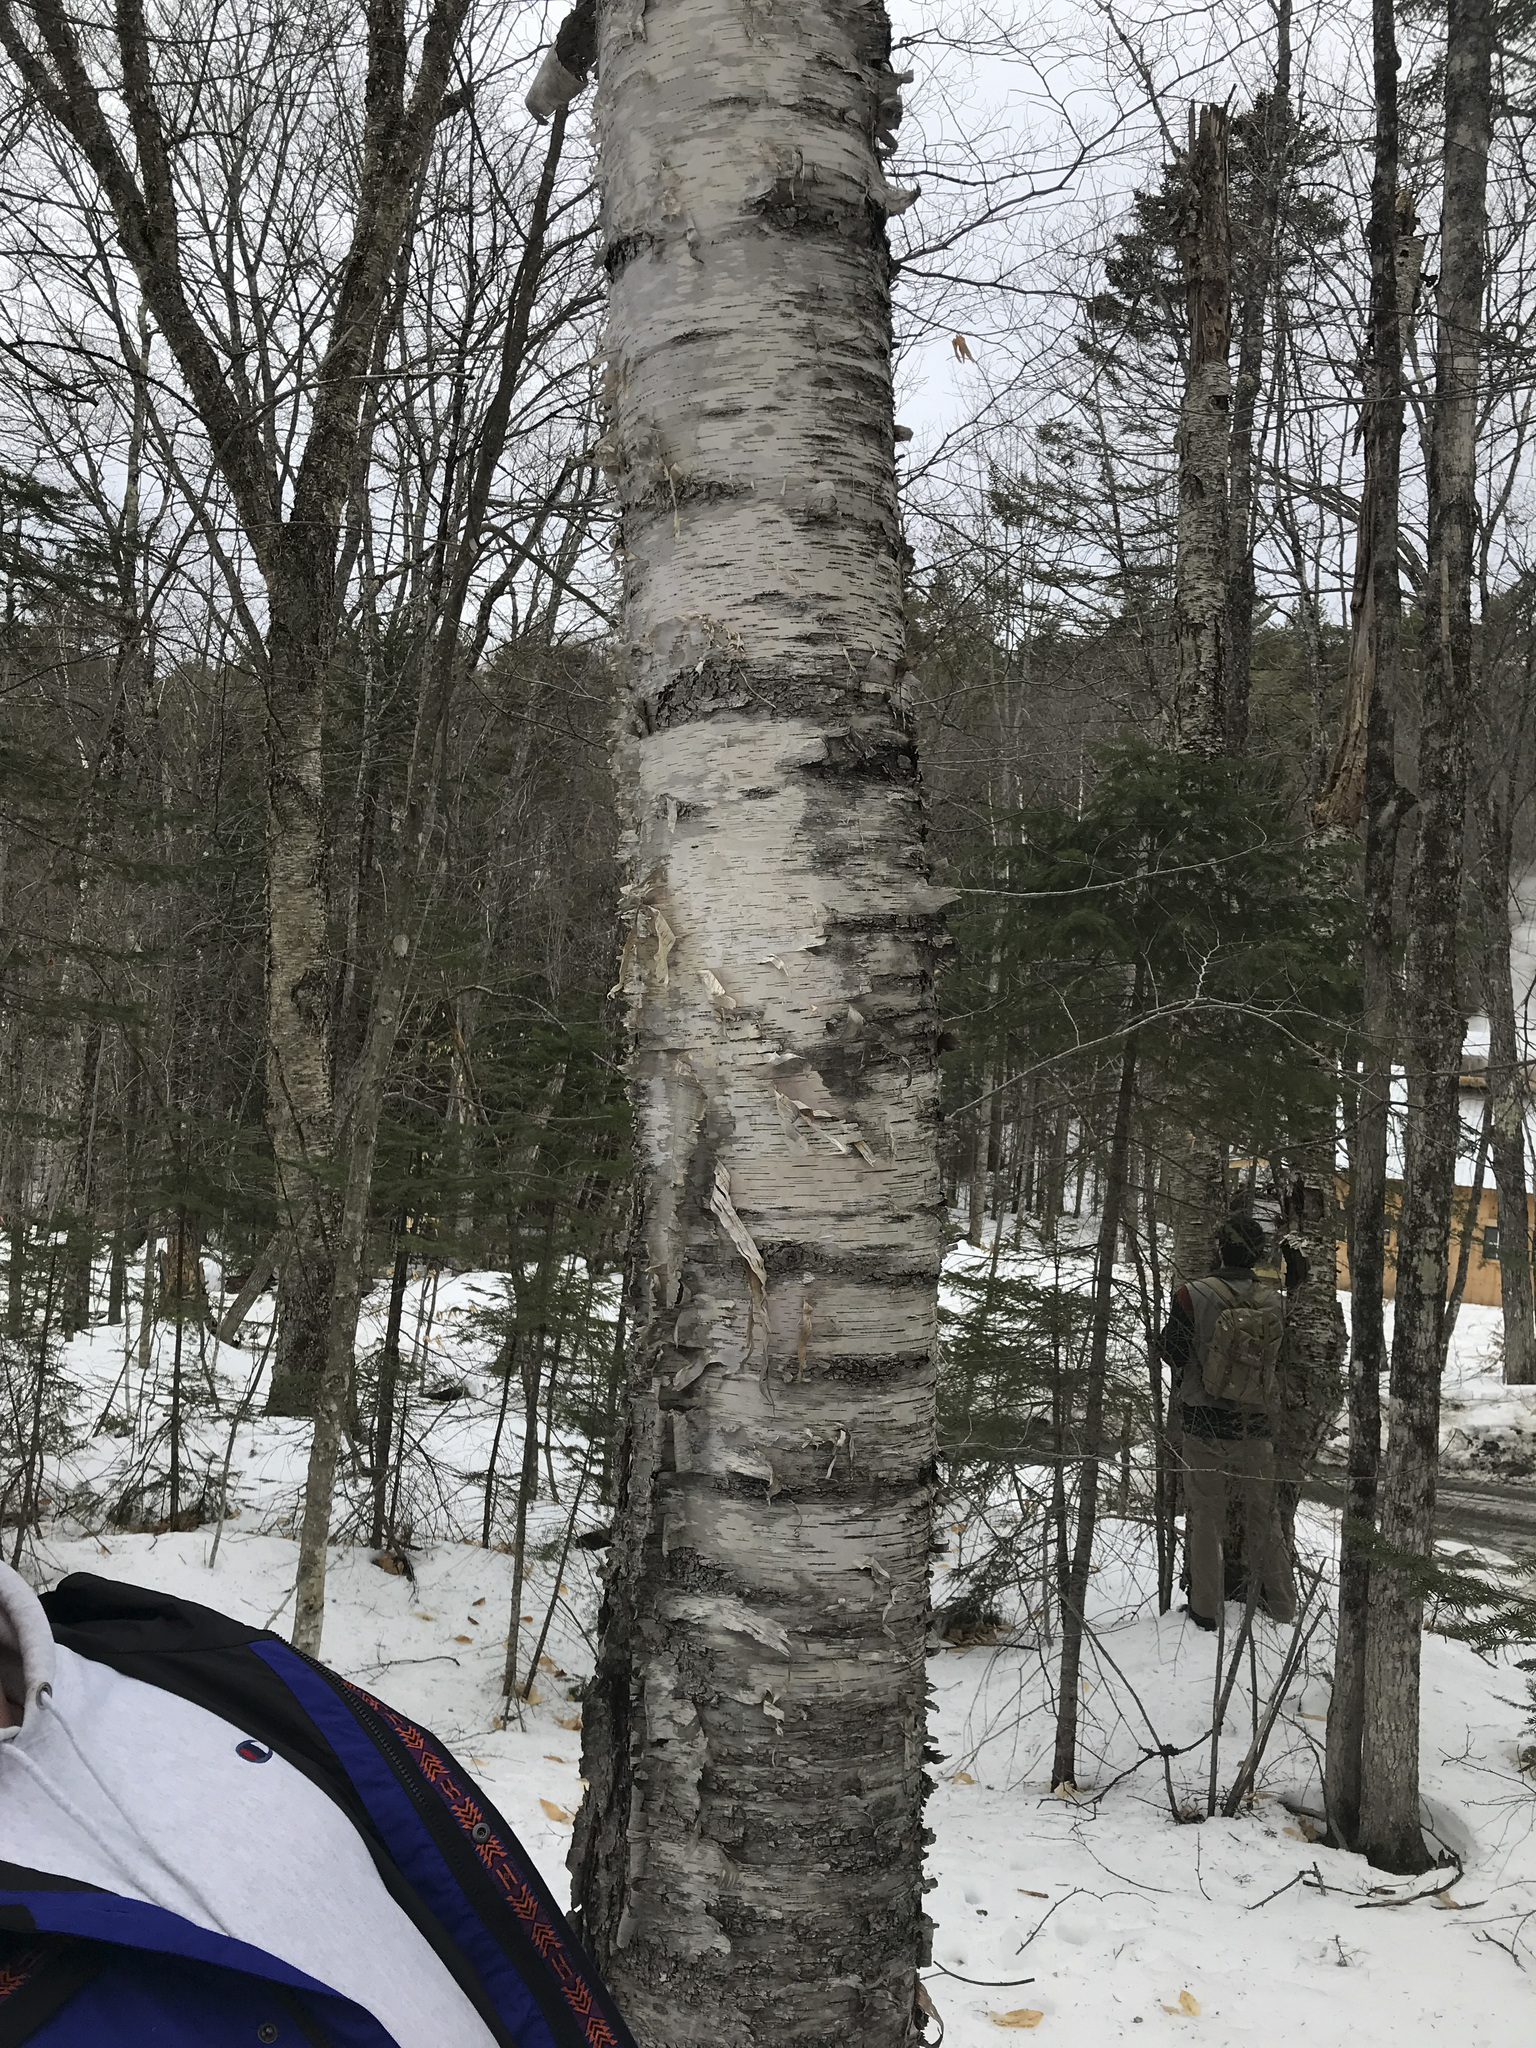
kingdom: Plantae
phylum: Tracheophyta
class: Magnoliopsida
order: Fagales
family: Betulaceae
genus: Betula
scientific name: Betula papyrifera
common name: Paper birch
